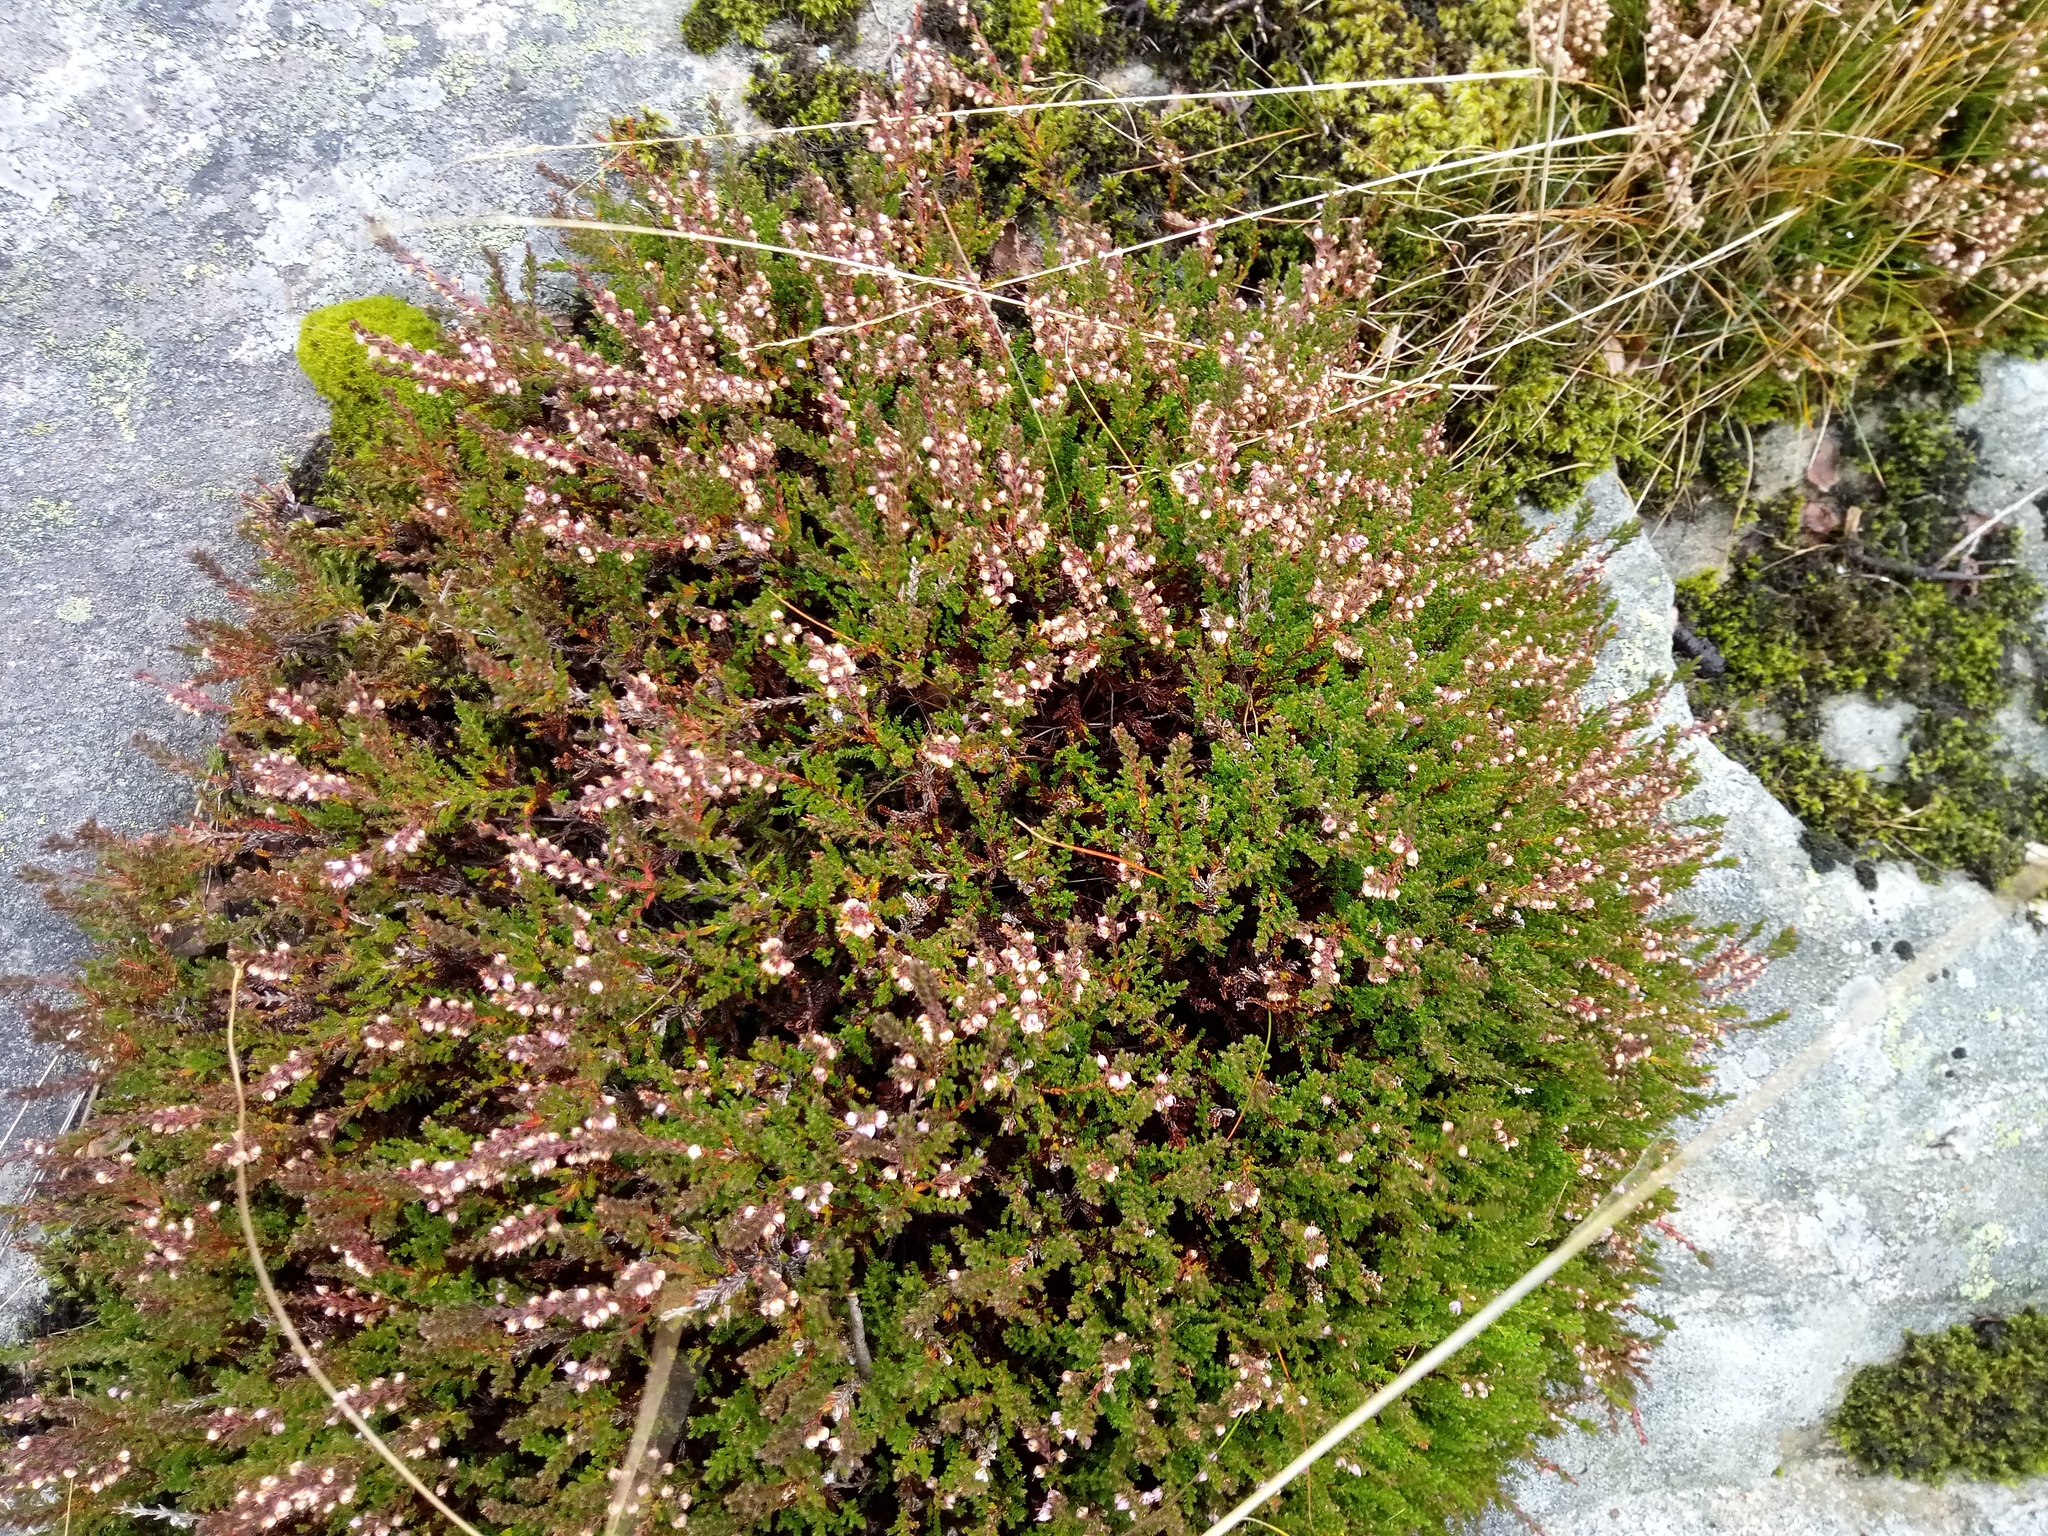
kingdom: Plantae
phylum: Tracheophyta
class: Magnoliopsida
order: Ericales
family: Ericaceae
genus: Calluna
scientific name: Calluna vulgaris
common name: Heather
